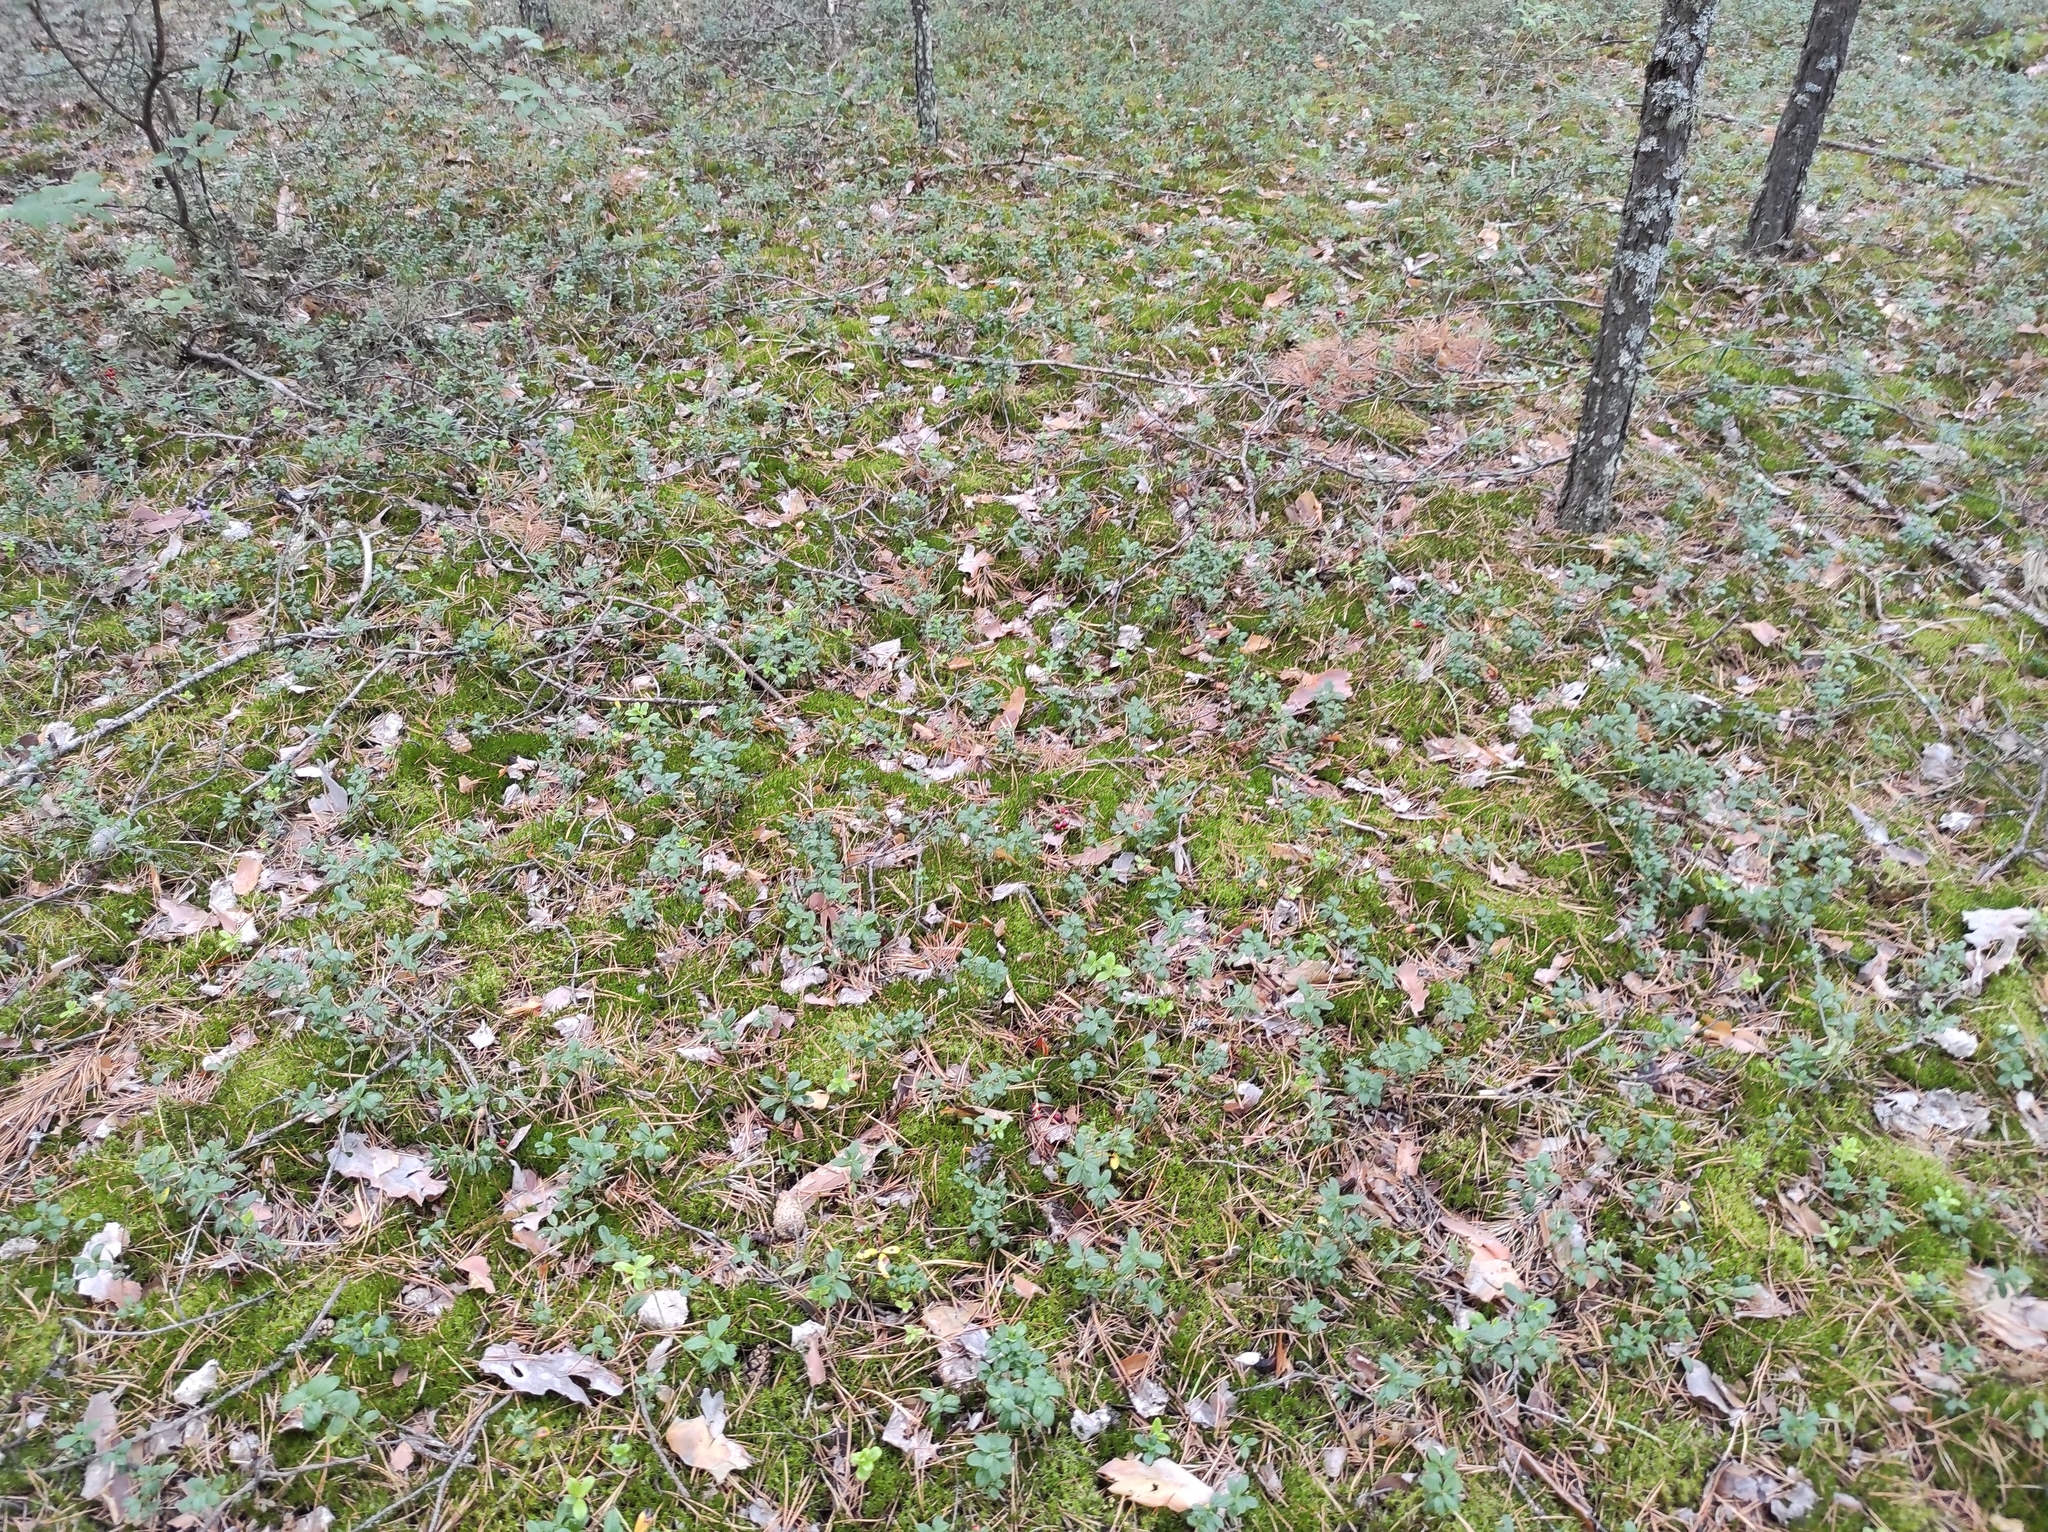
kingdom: Plantae
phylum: Tracheophyta
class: Magnoliopsida
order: Ericales
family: Ericaceae
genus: Vaccinium
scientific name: Vaccinium vitis-idaea
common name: Cowberry
